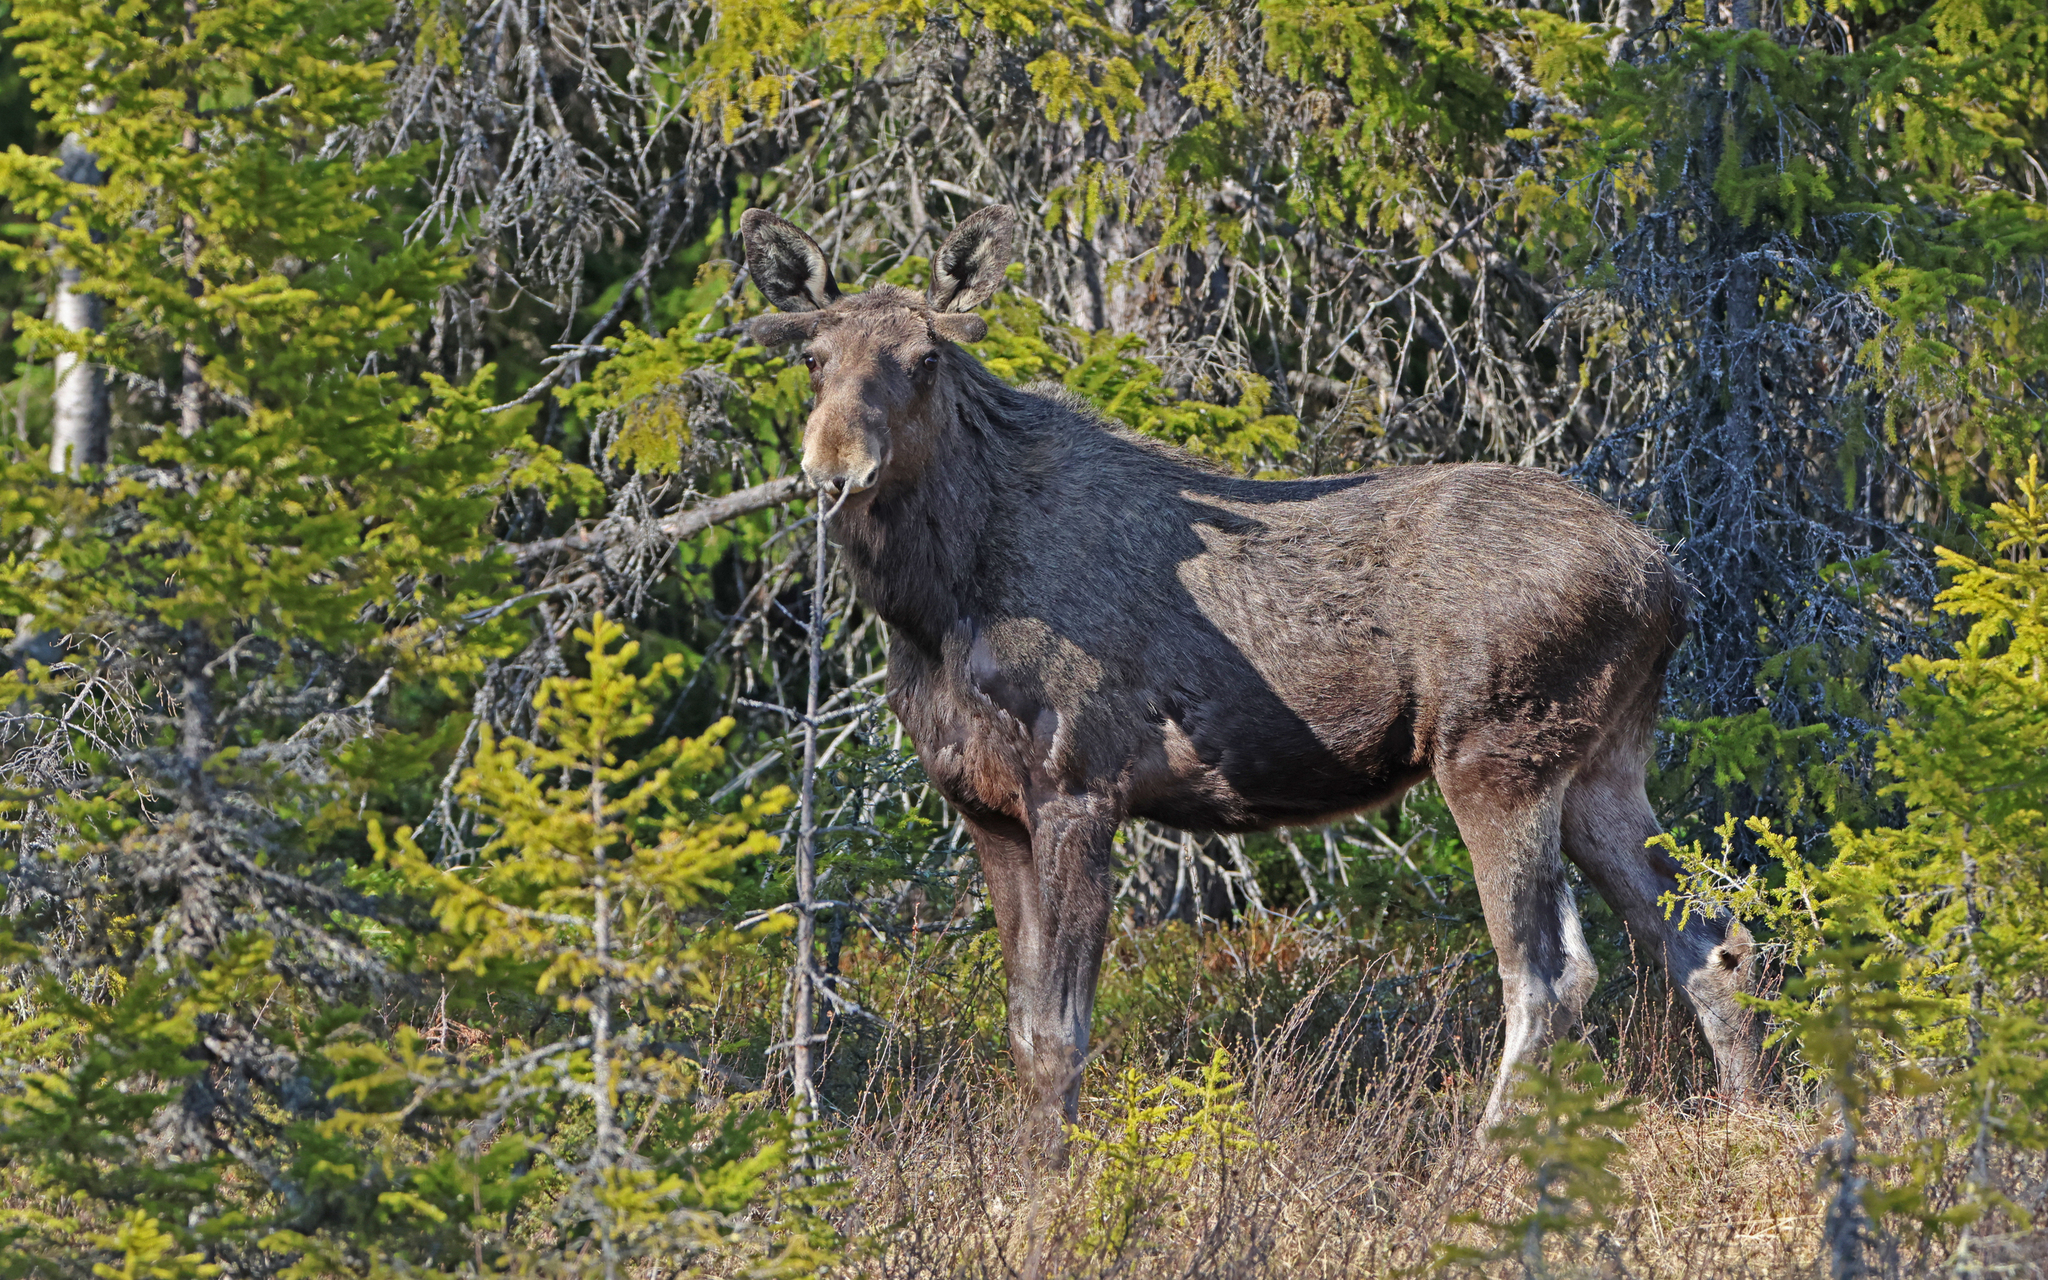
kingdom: Animalia
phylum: Chordata
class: Mammalia
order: Artiodactyla
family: Cervidae
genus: Alces
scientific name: Alces alces
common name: Moose
